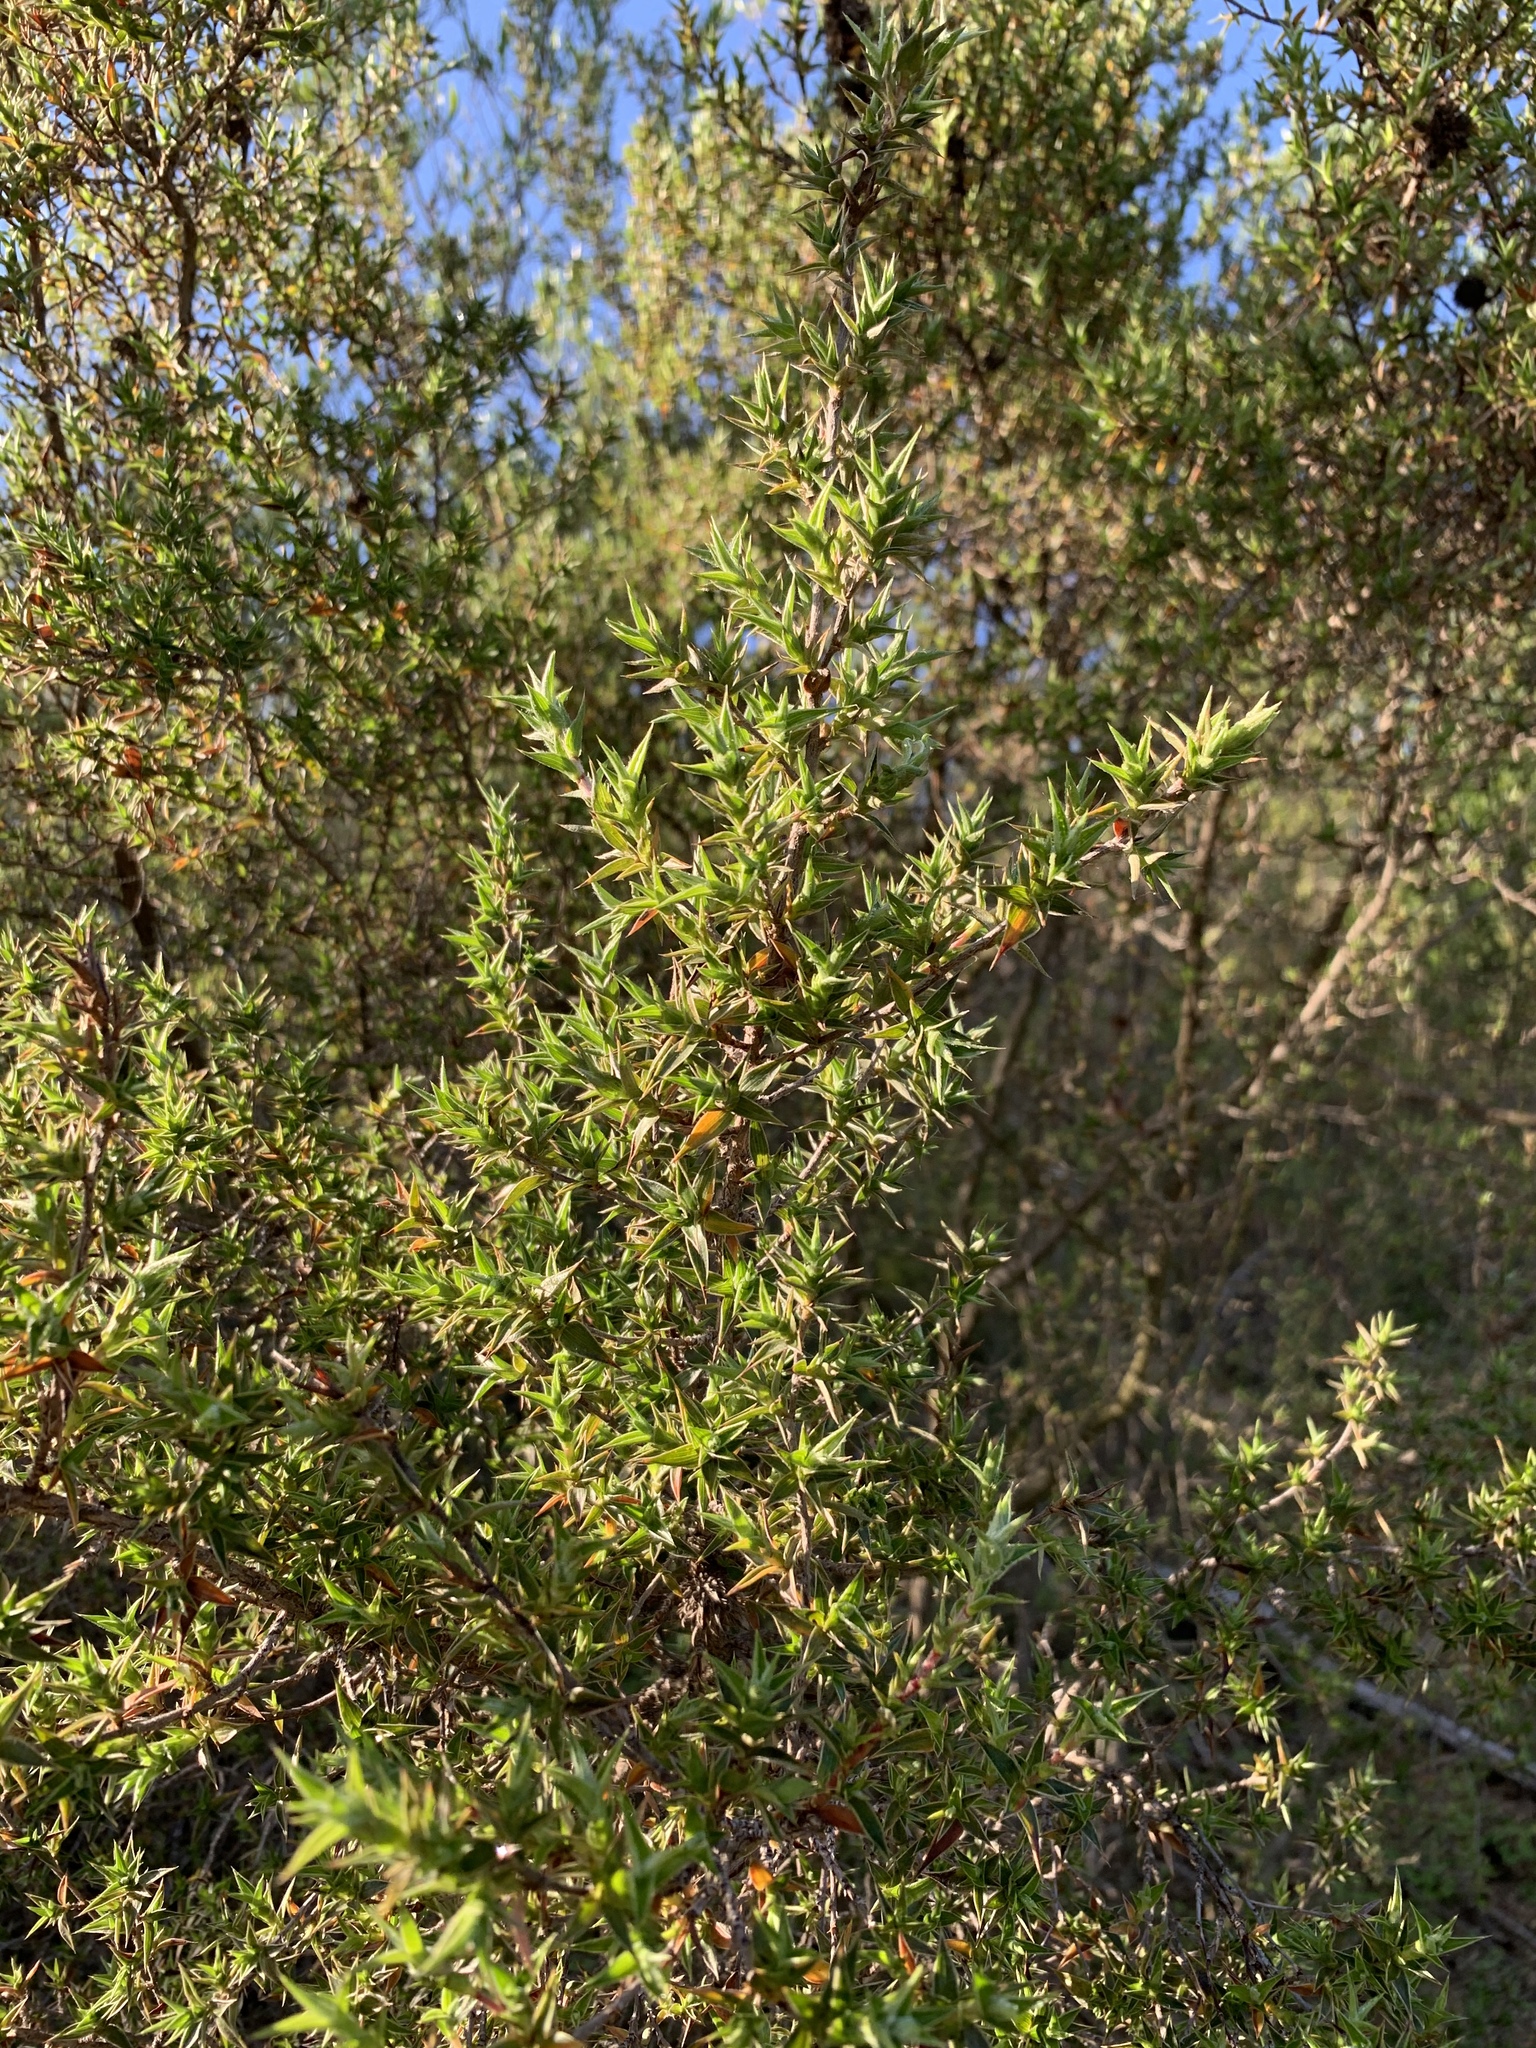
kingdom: Plantae
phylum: Tracheophyta
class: Magnoliopsida
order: Rosales
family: Rosaceae
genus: Cliffortia
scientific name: Cliffortia ruscifolia
